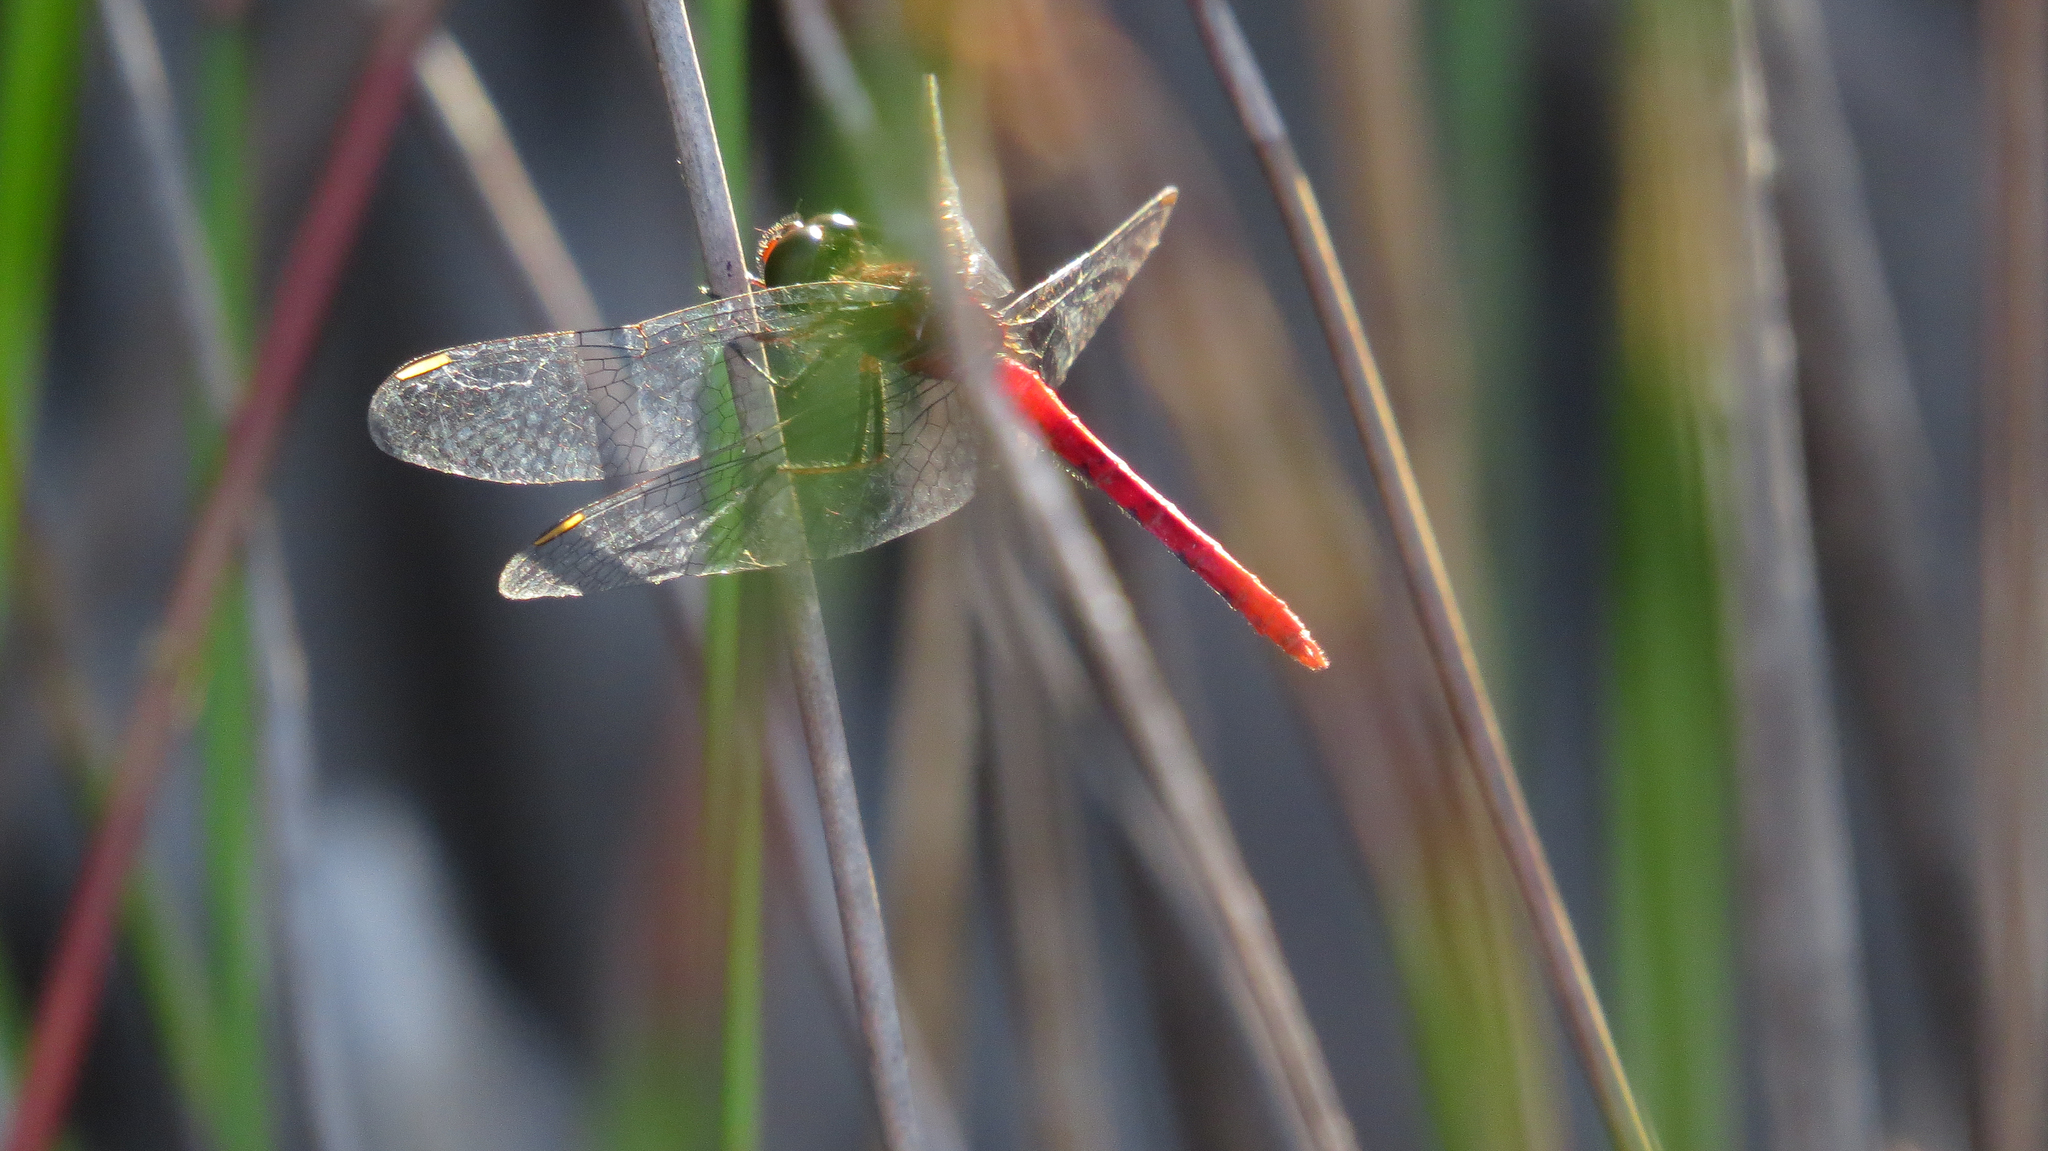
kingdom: Animalia
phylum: Arthropoda
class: Insecta
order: Odonata
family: Libellulidae
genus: Nannodiplax
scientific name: Nannodiplax rubra
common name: Pygmy percher
